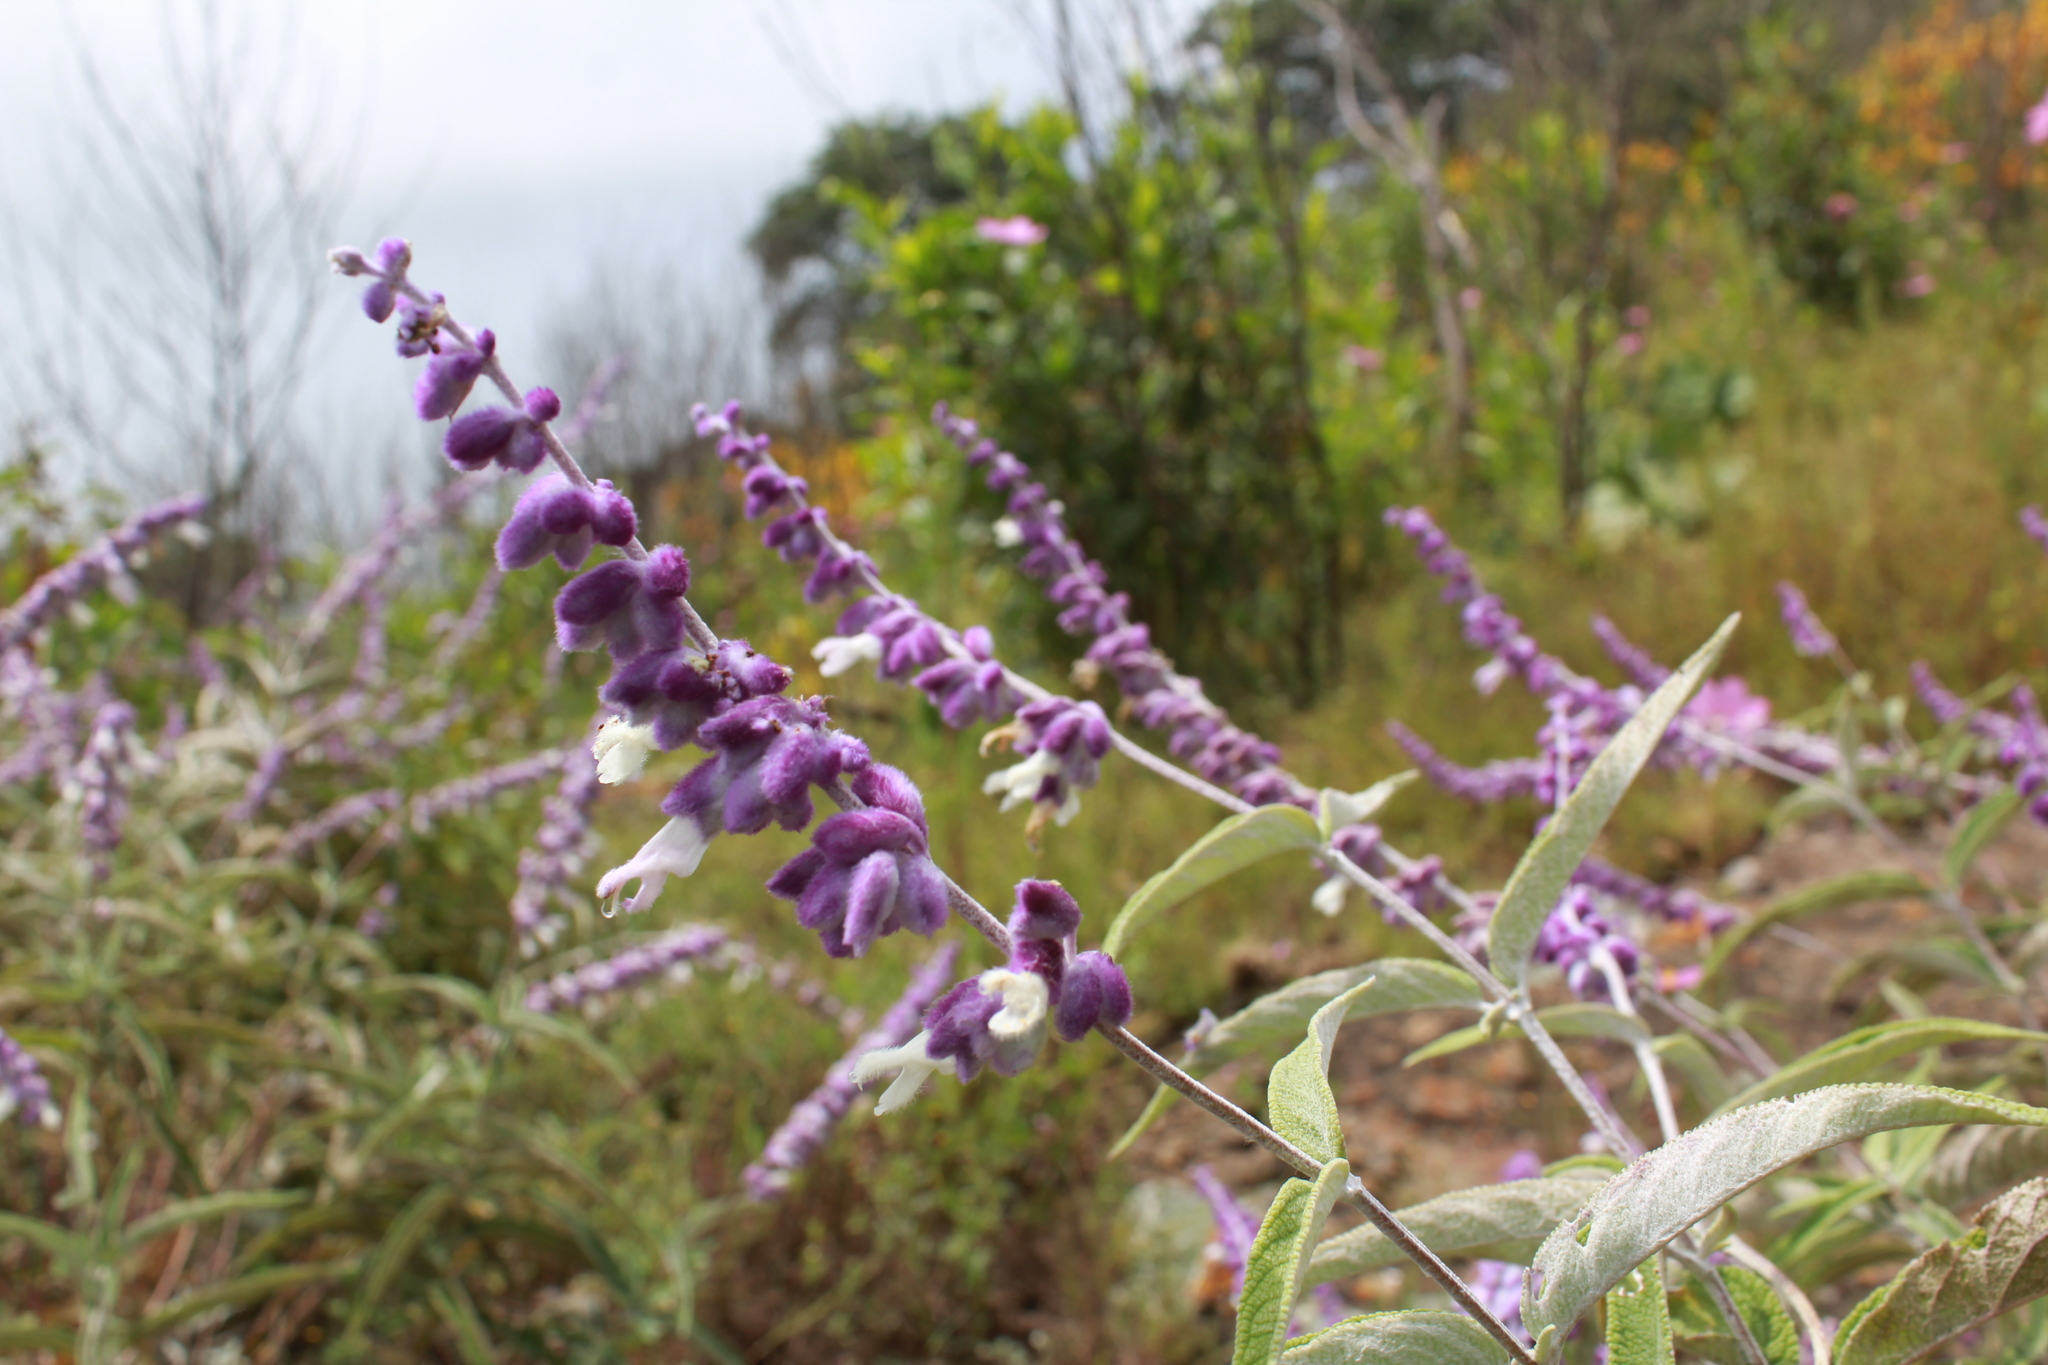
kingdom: Plantae
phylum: Tracheophyta
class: Magnoliopsida
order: Lamiales
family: Lamiaceae
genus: Salvia
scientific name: Salvia leucantha
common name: Mexican bush sage
